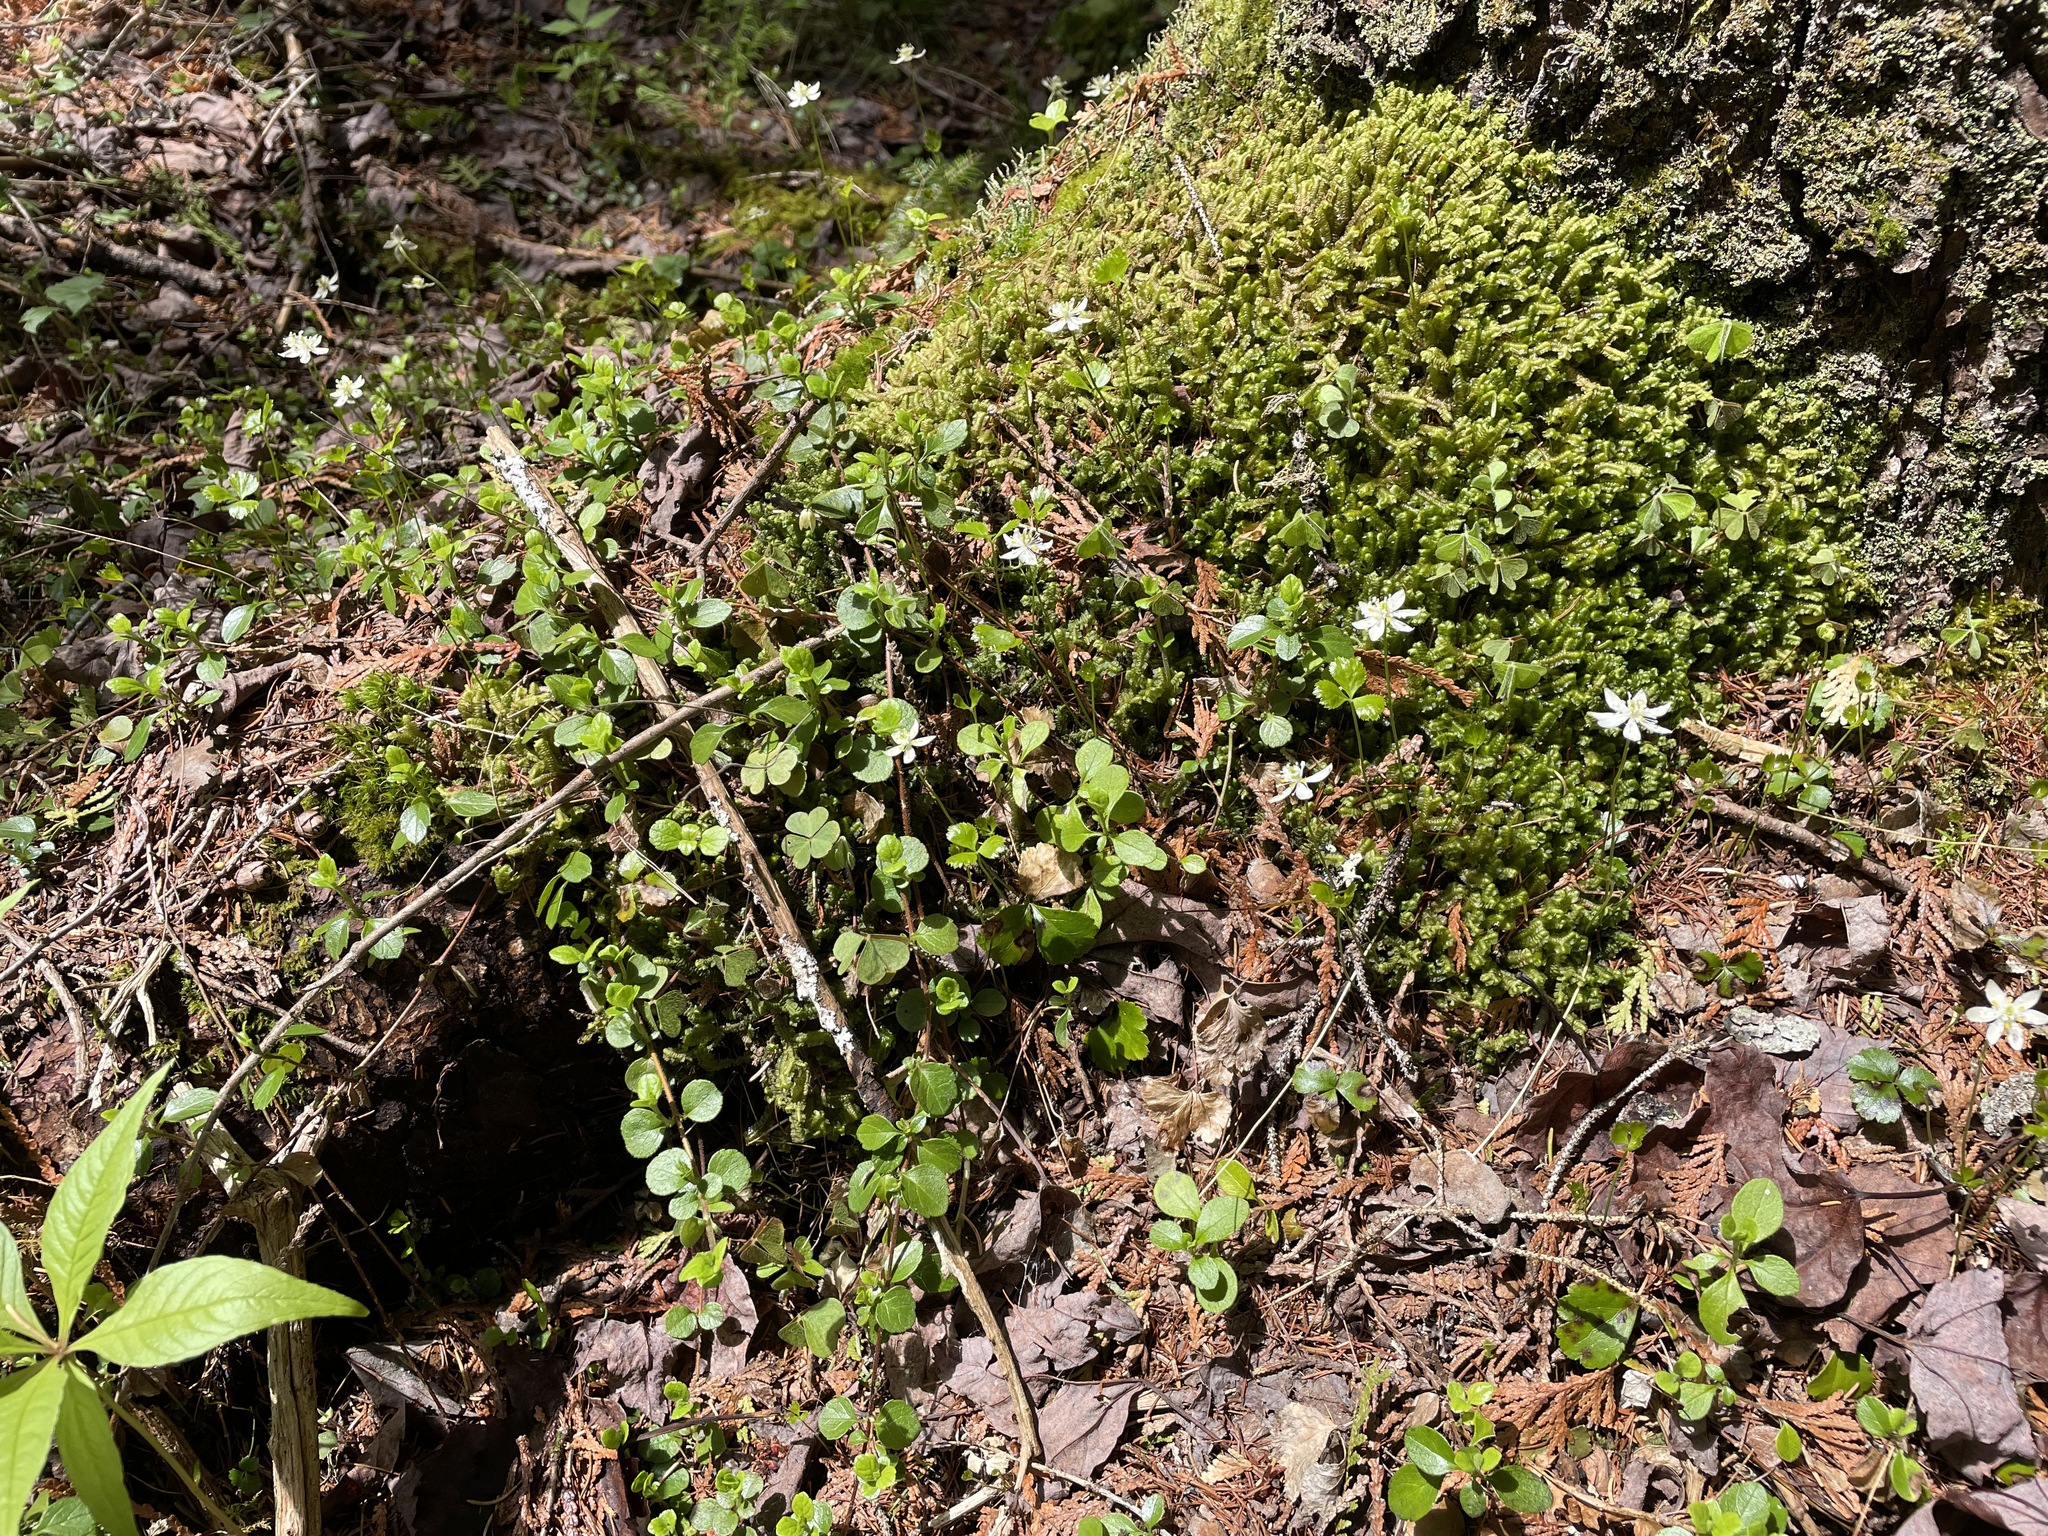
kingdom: Plantae
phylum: Tracheophyta
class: Magnoliopsida
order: Ranunculales
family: Ranunculaceae
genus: Coptis
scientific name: Coptis trifolia
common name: Canker-root
